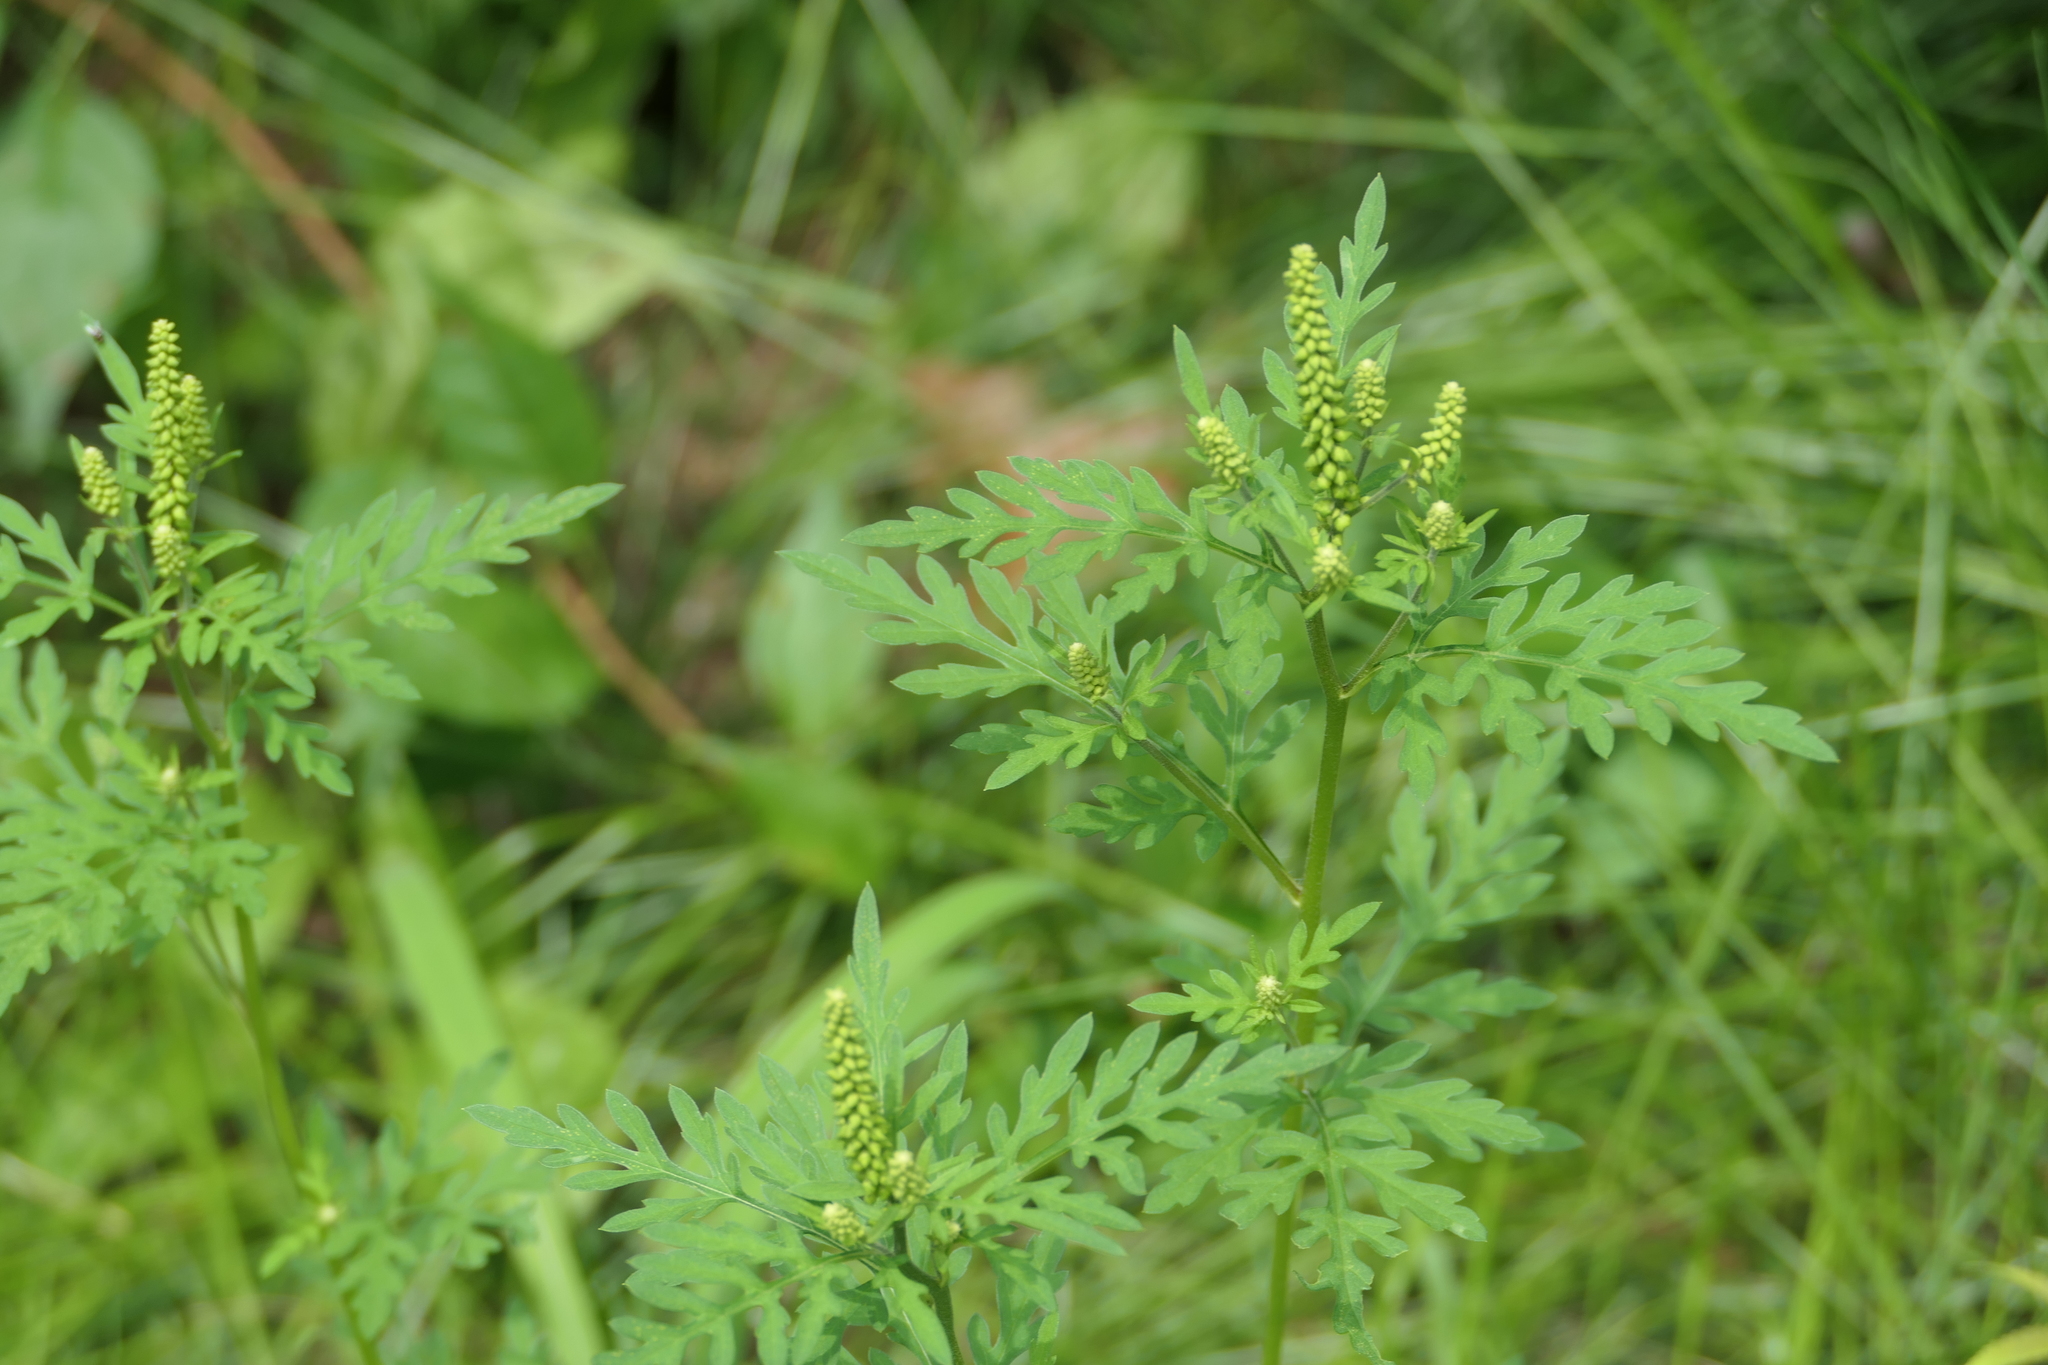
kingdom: Plantae
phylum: Tracheophyta
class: Magnoliopsida
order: Asterales
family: Asteraceae
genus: Ambrosia
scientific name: Ambrosia artemisiifolia
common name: Annual ragweed
